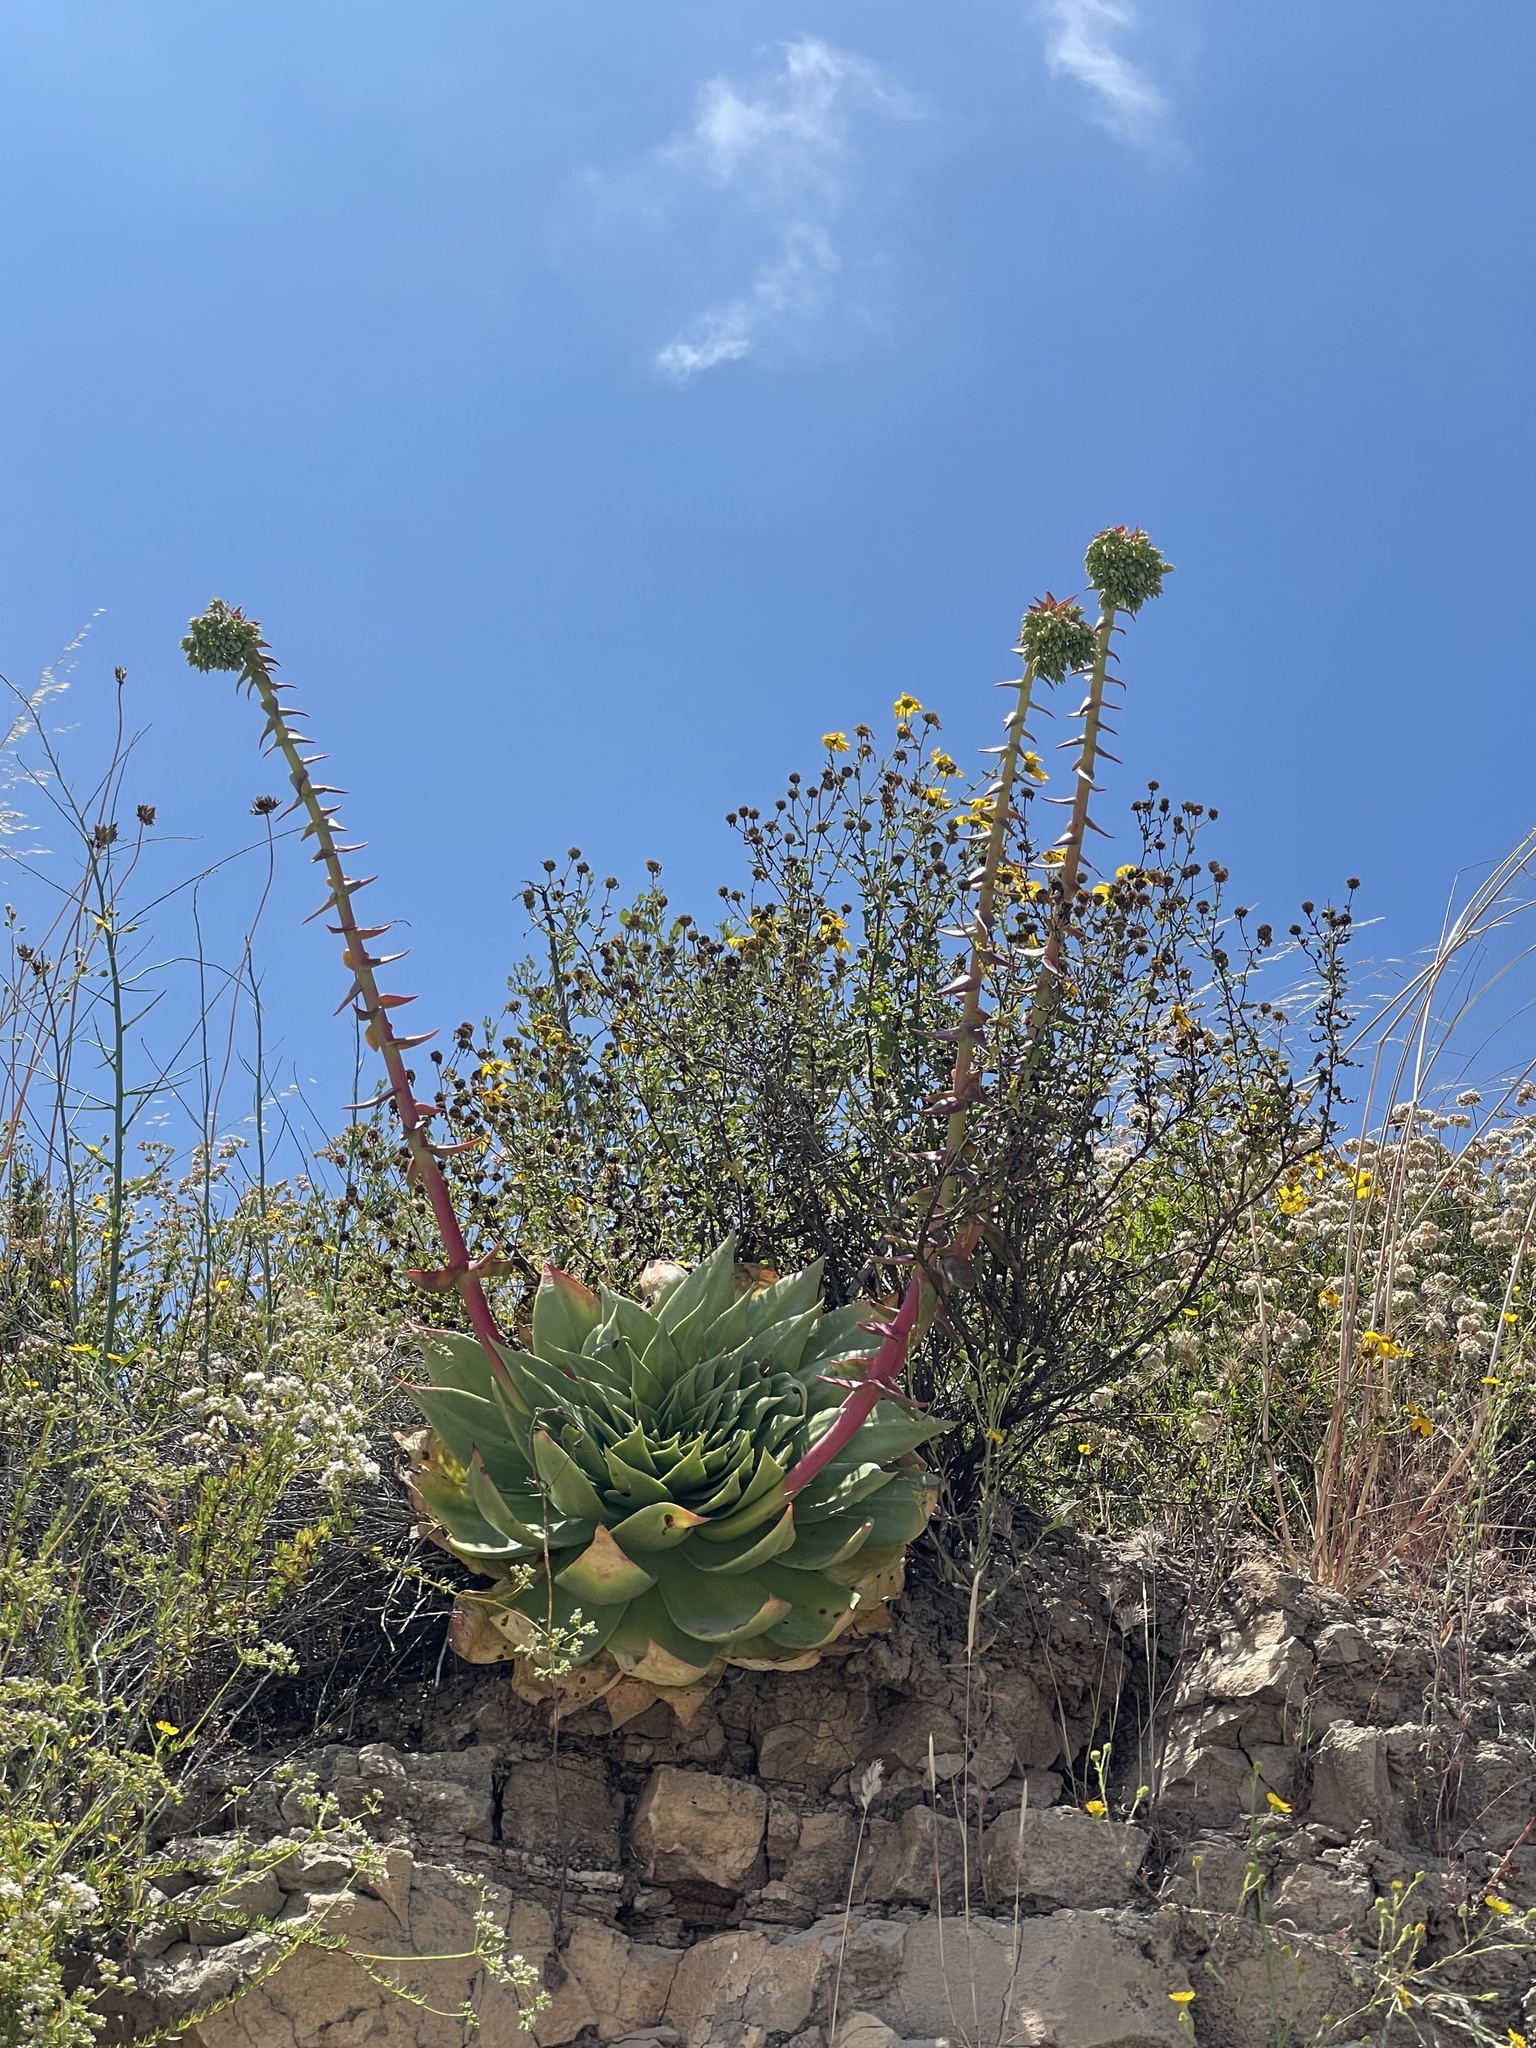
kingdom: Plantae
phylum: Tracheophyta
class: Magnoliopsida
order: Saxifragales
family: Crassulaceae
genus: Dudleya
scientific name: Dudleya
